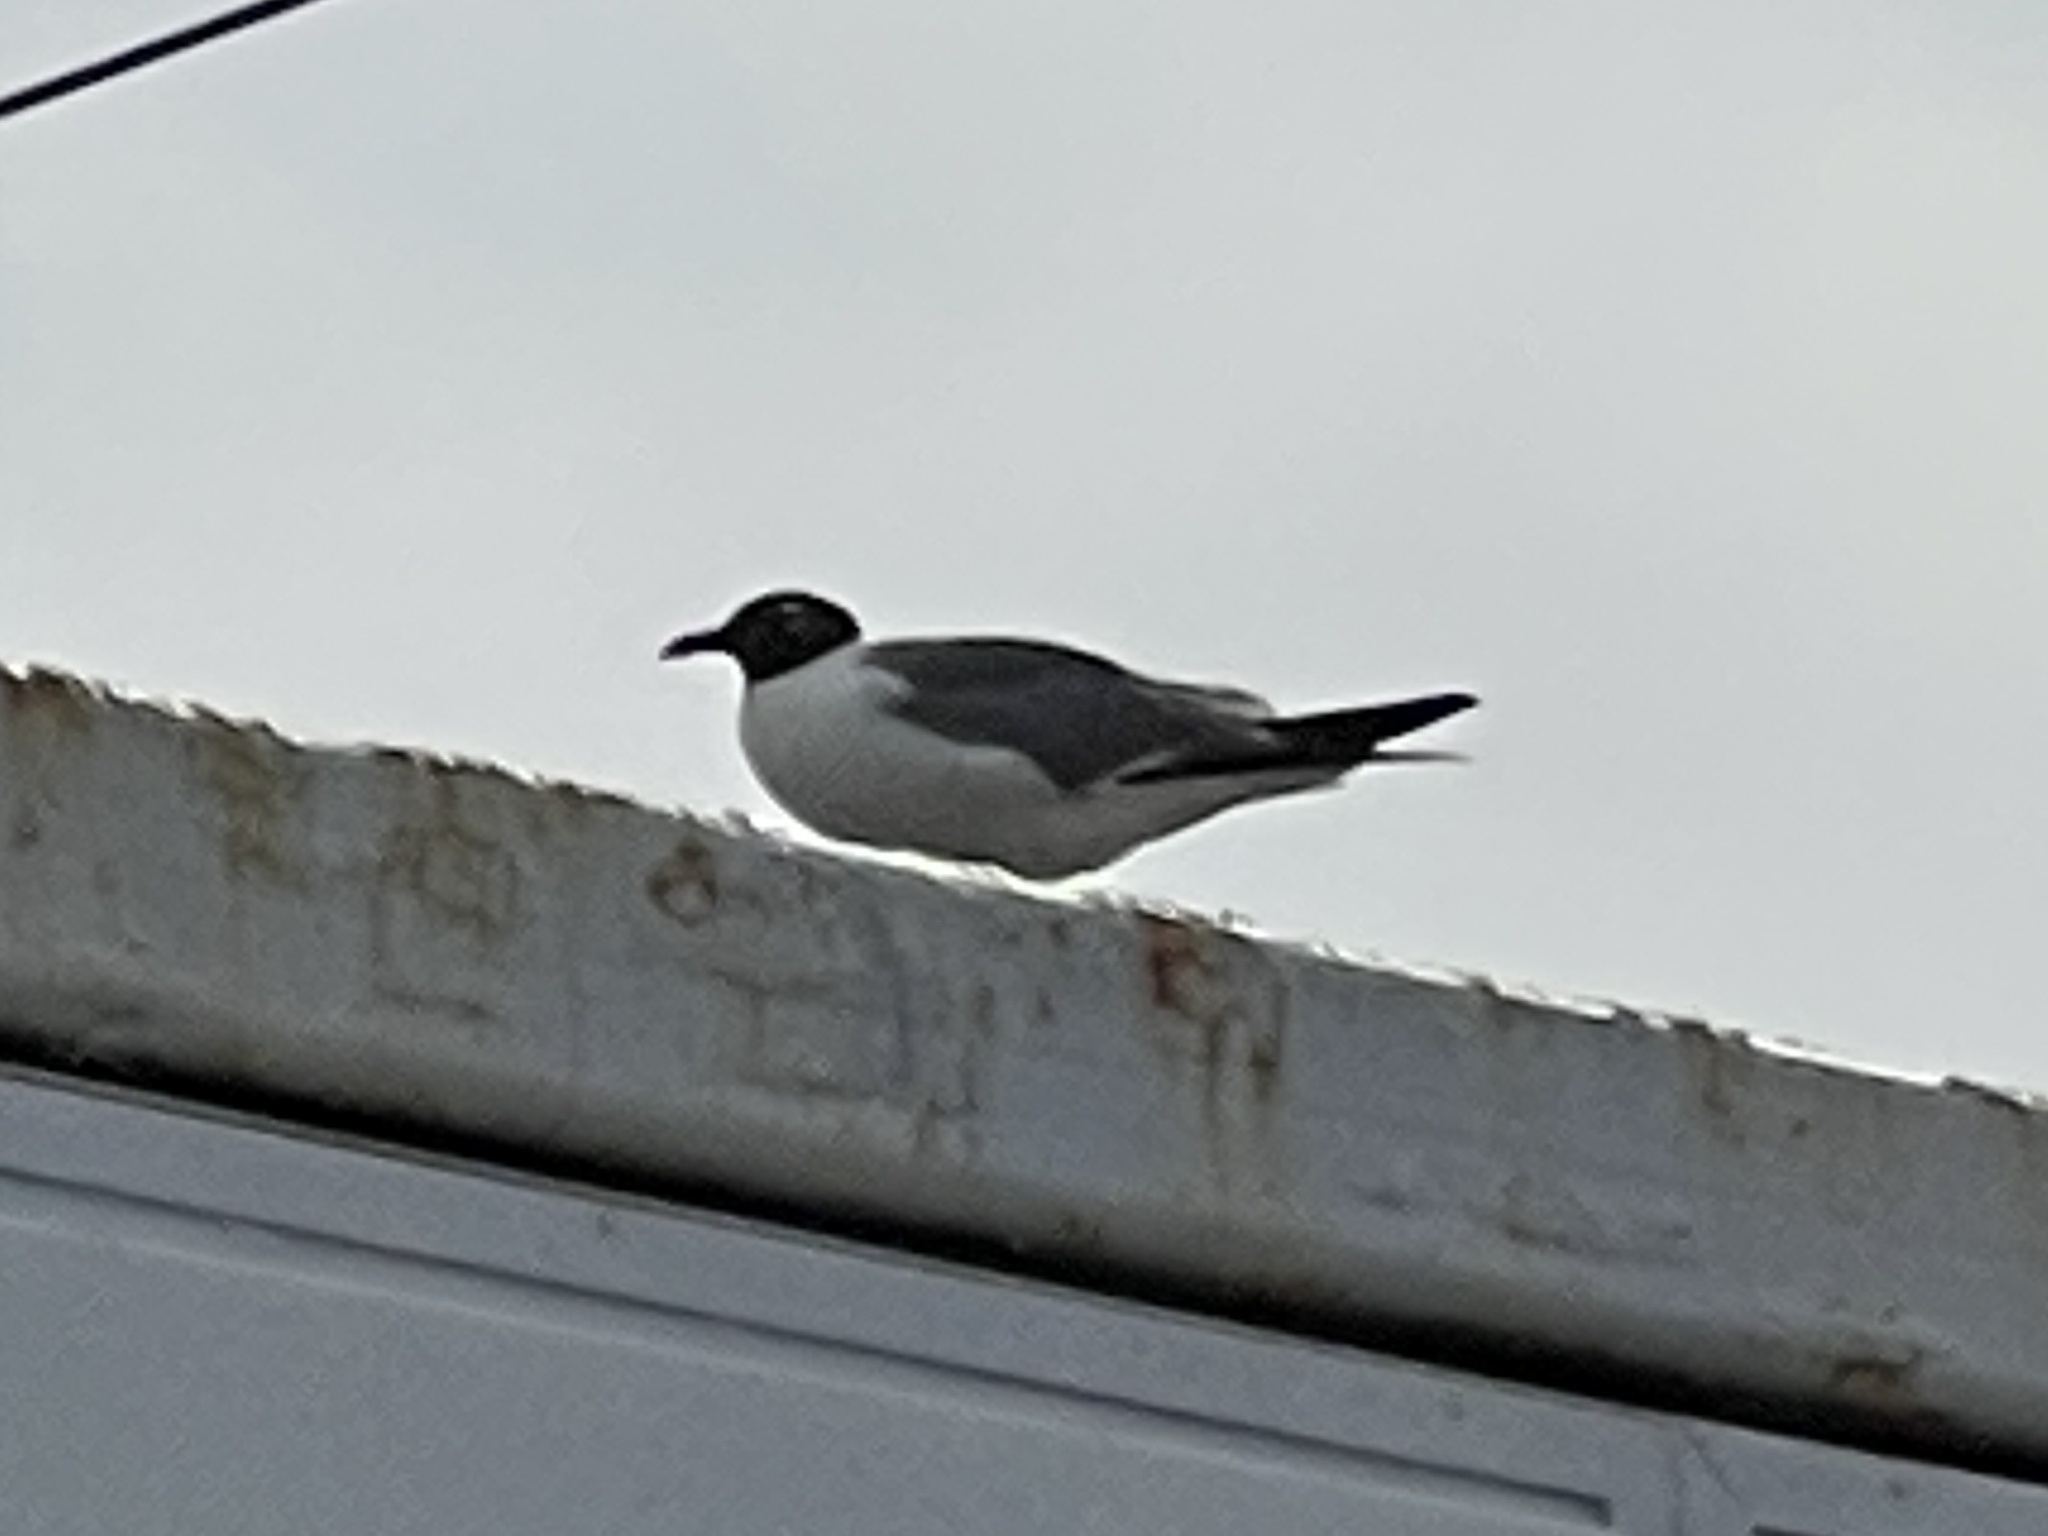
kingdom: Animalia
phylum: Chordata
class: Aves
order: Charadriiformes
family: Laridae
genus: Leucophaeus
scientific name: Leucophaeus atricilla
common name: Laughing gull
